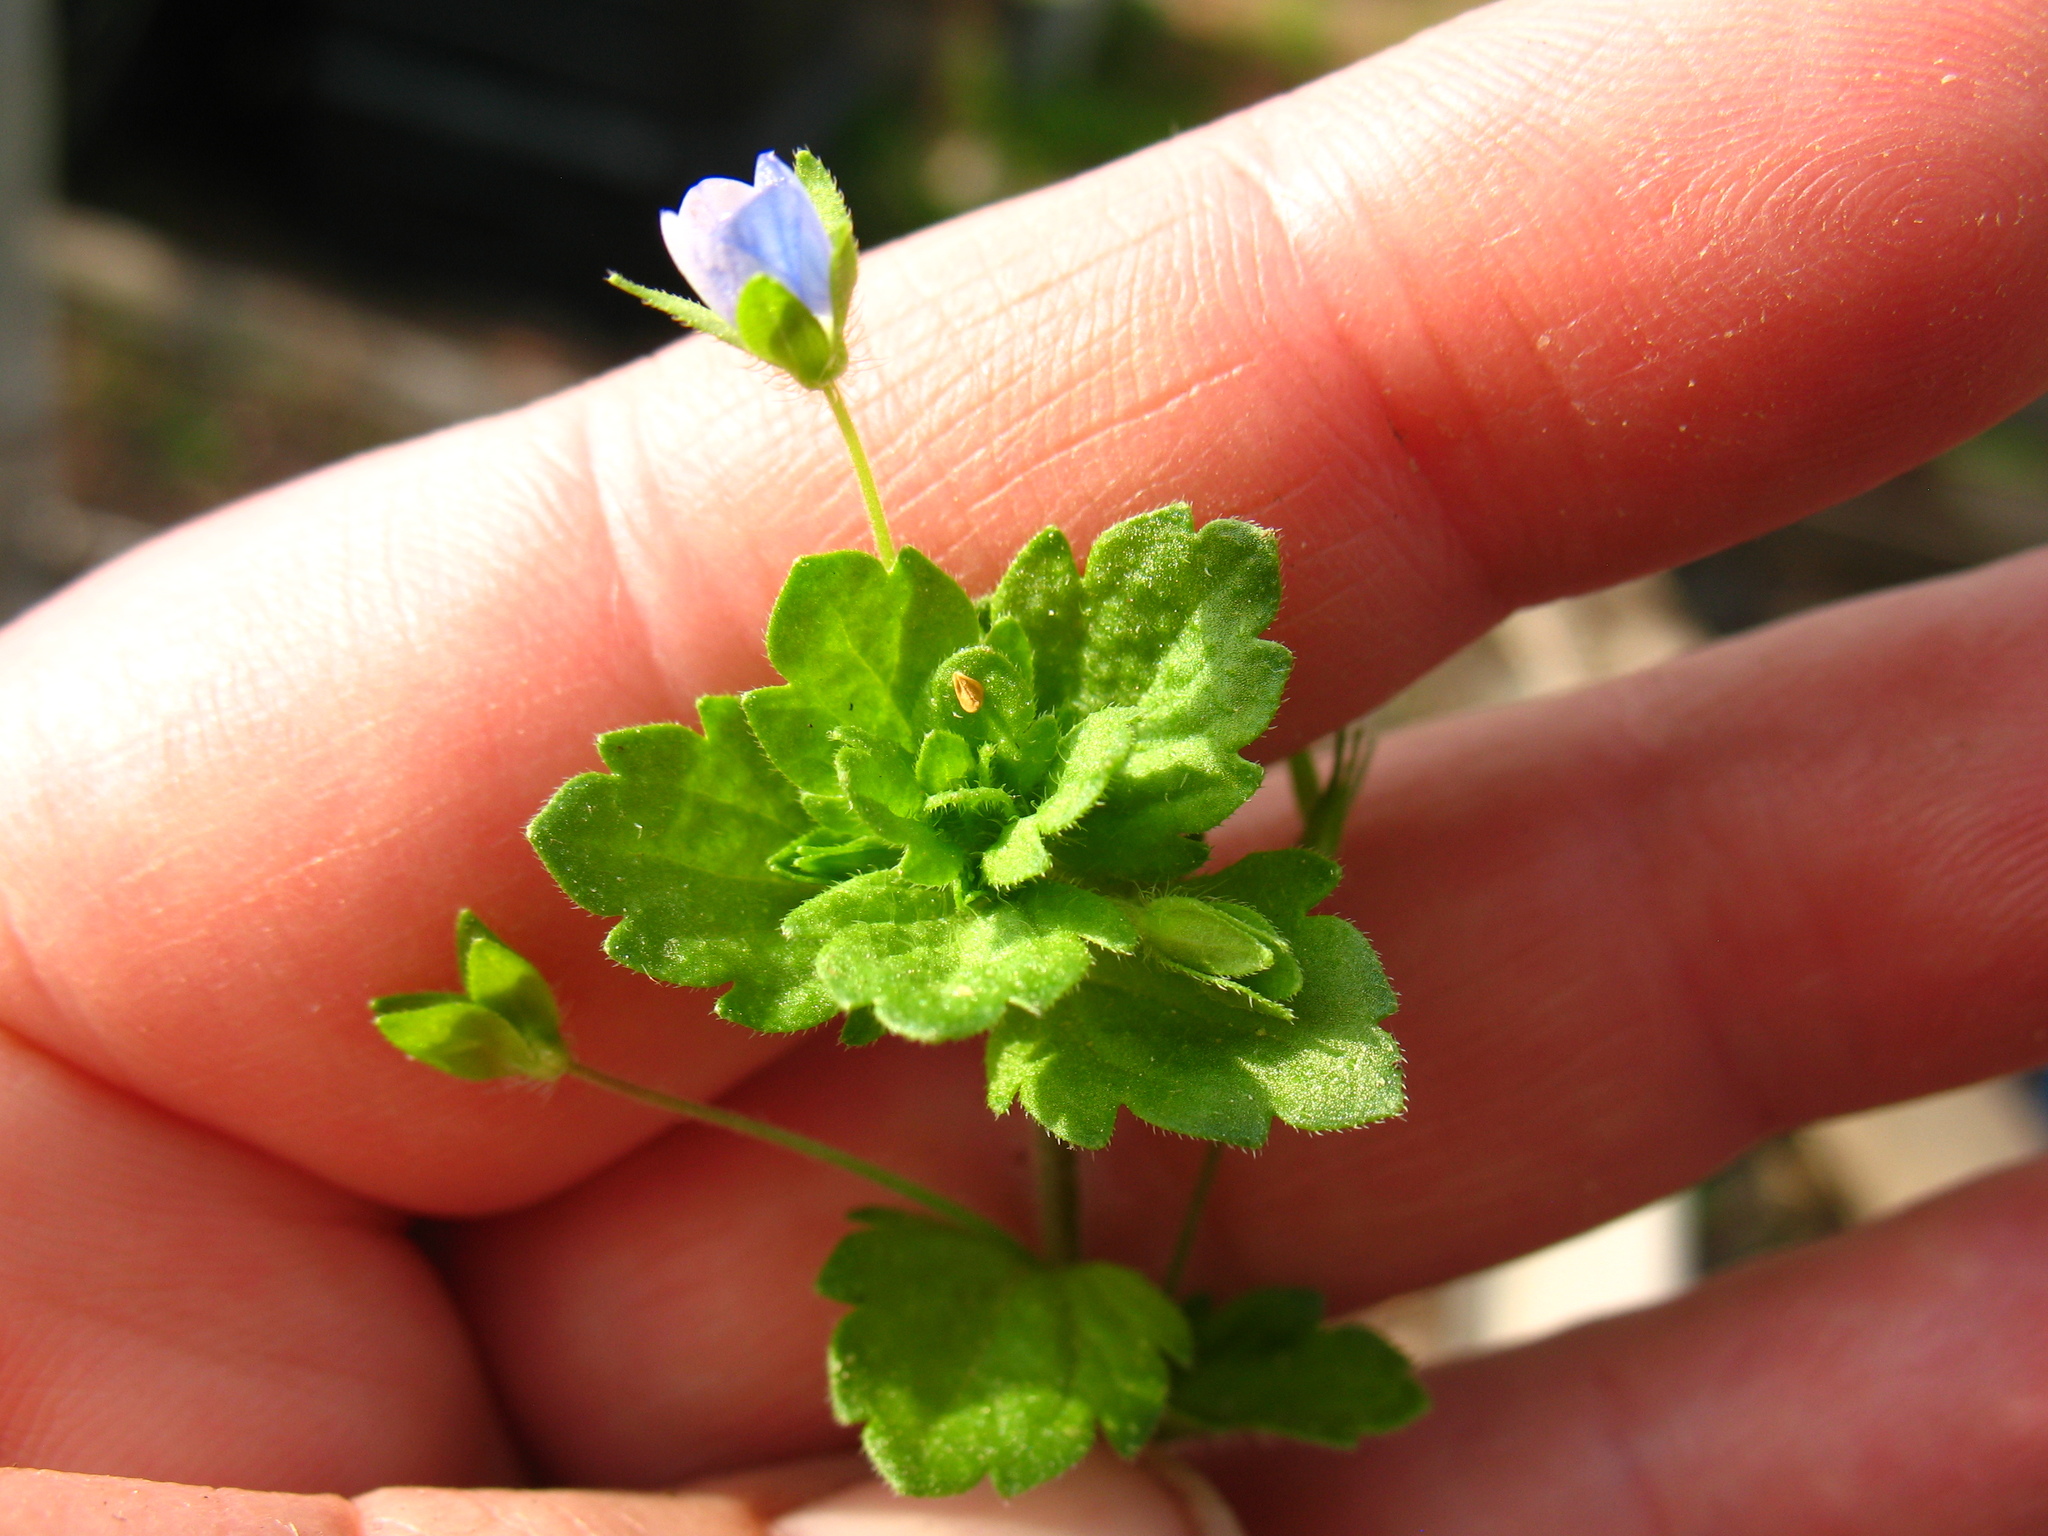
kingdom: Plantae
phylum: Tracheophyta
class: Magnoliopsida
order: Lamiales
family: Plantaginaceae
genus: Veronica
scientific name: Veronica persica
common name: Common field-speedwell
